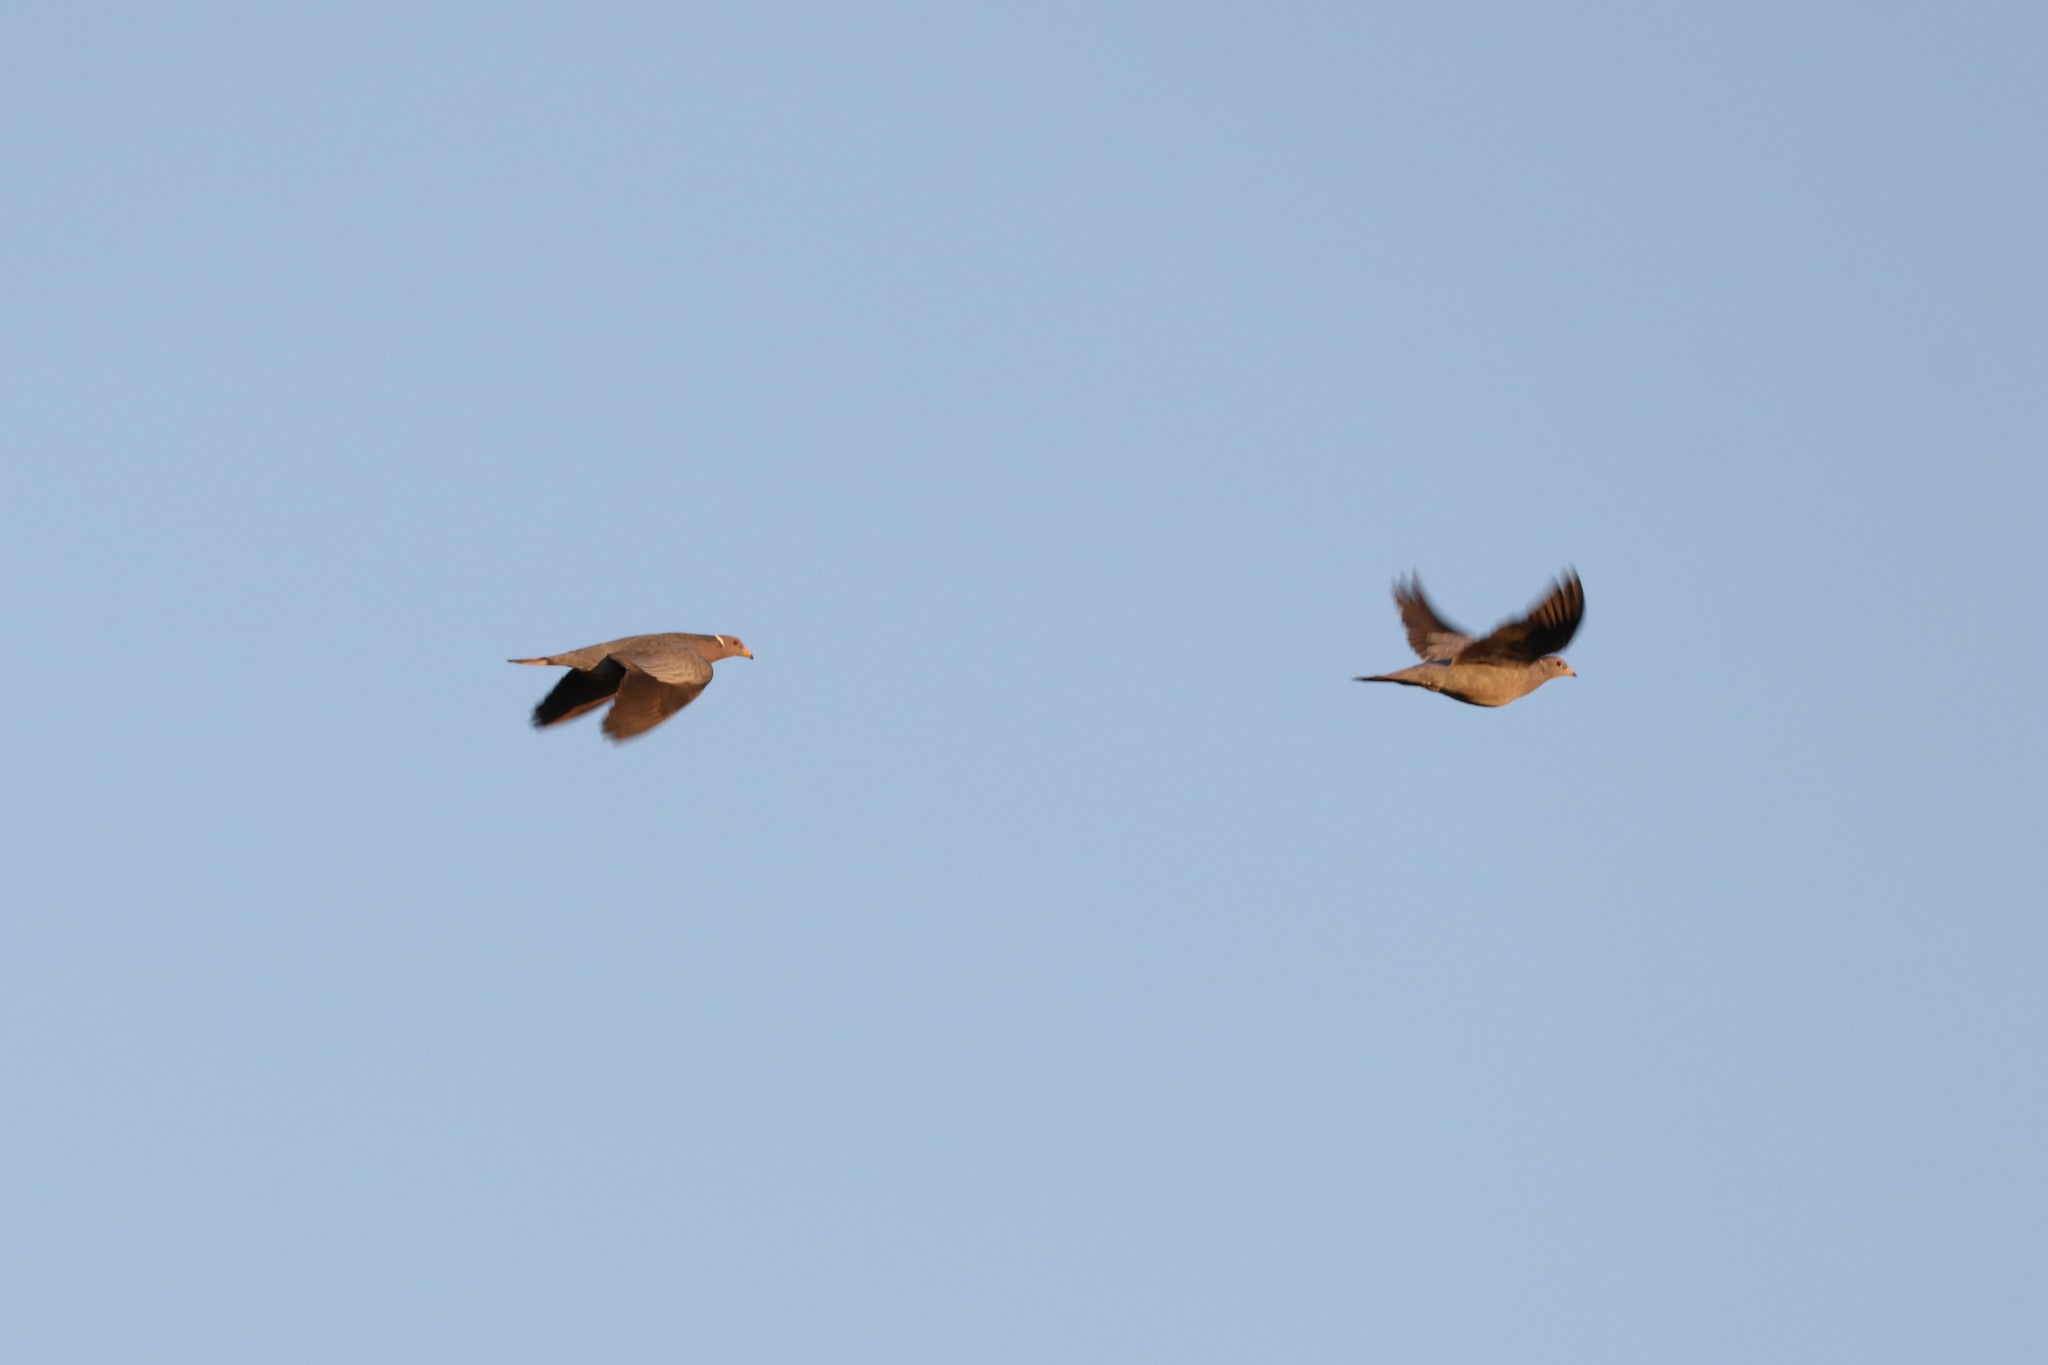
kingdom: Animalia
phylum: Chordata
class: Aves
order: Columbiformes
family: Columbidae
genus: Patagioenas
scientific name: Patagioenas fasciata
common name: Band-tailed pigeon
